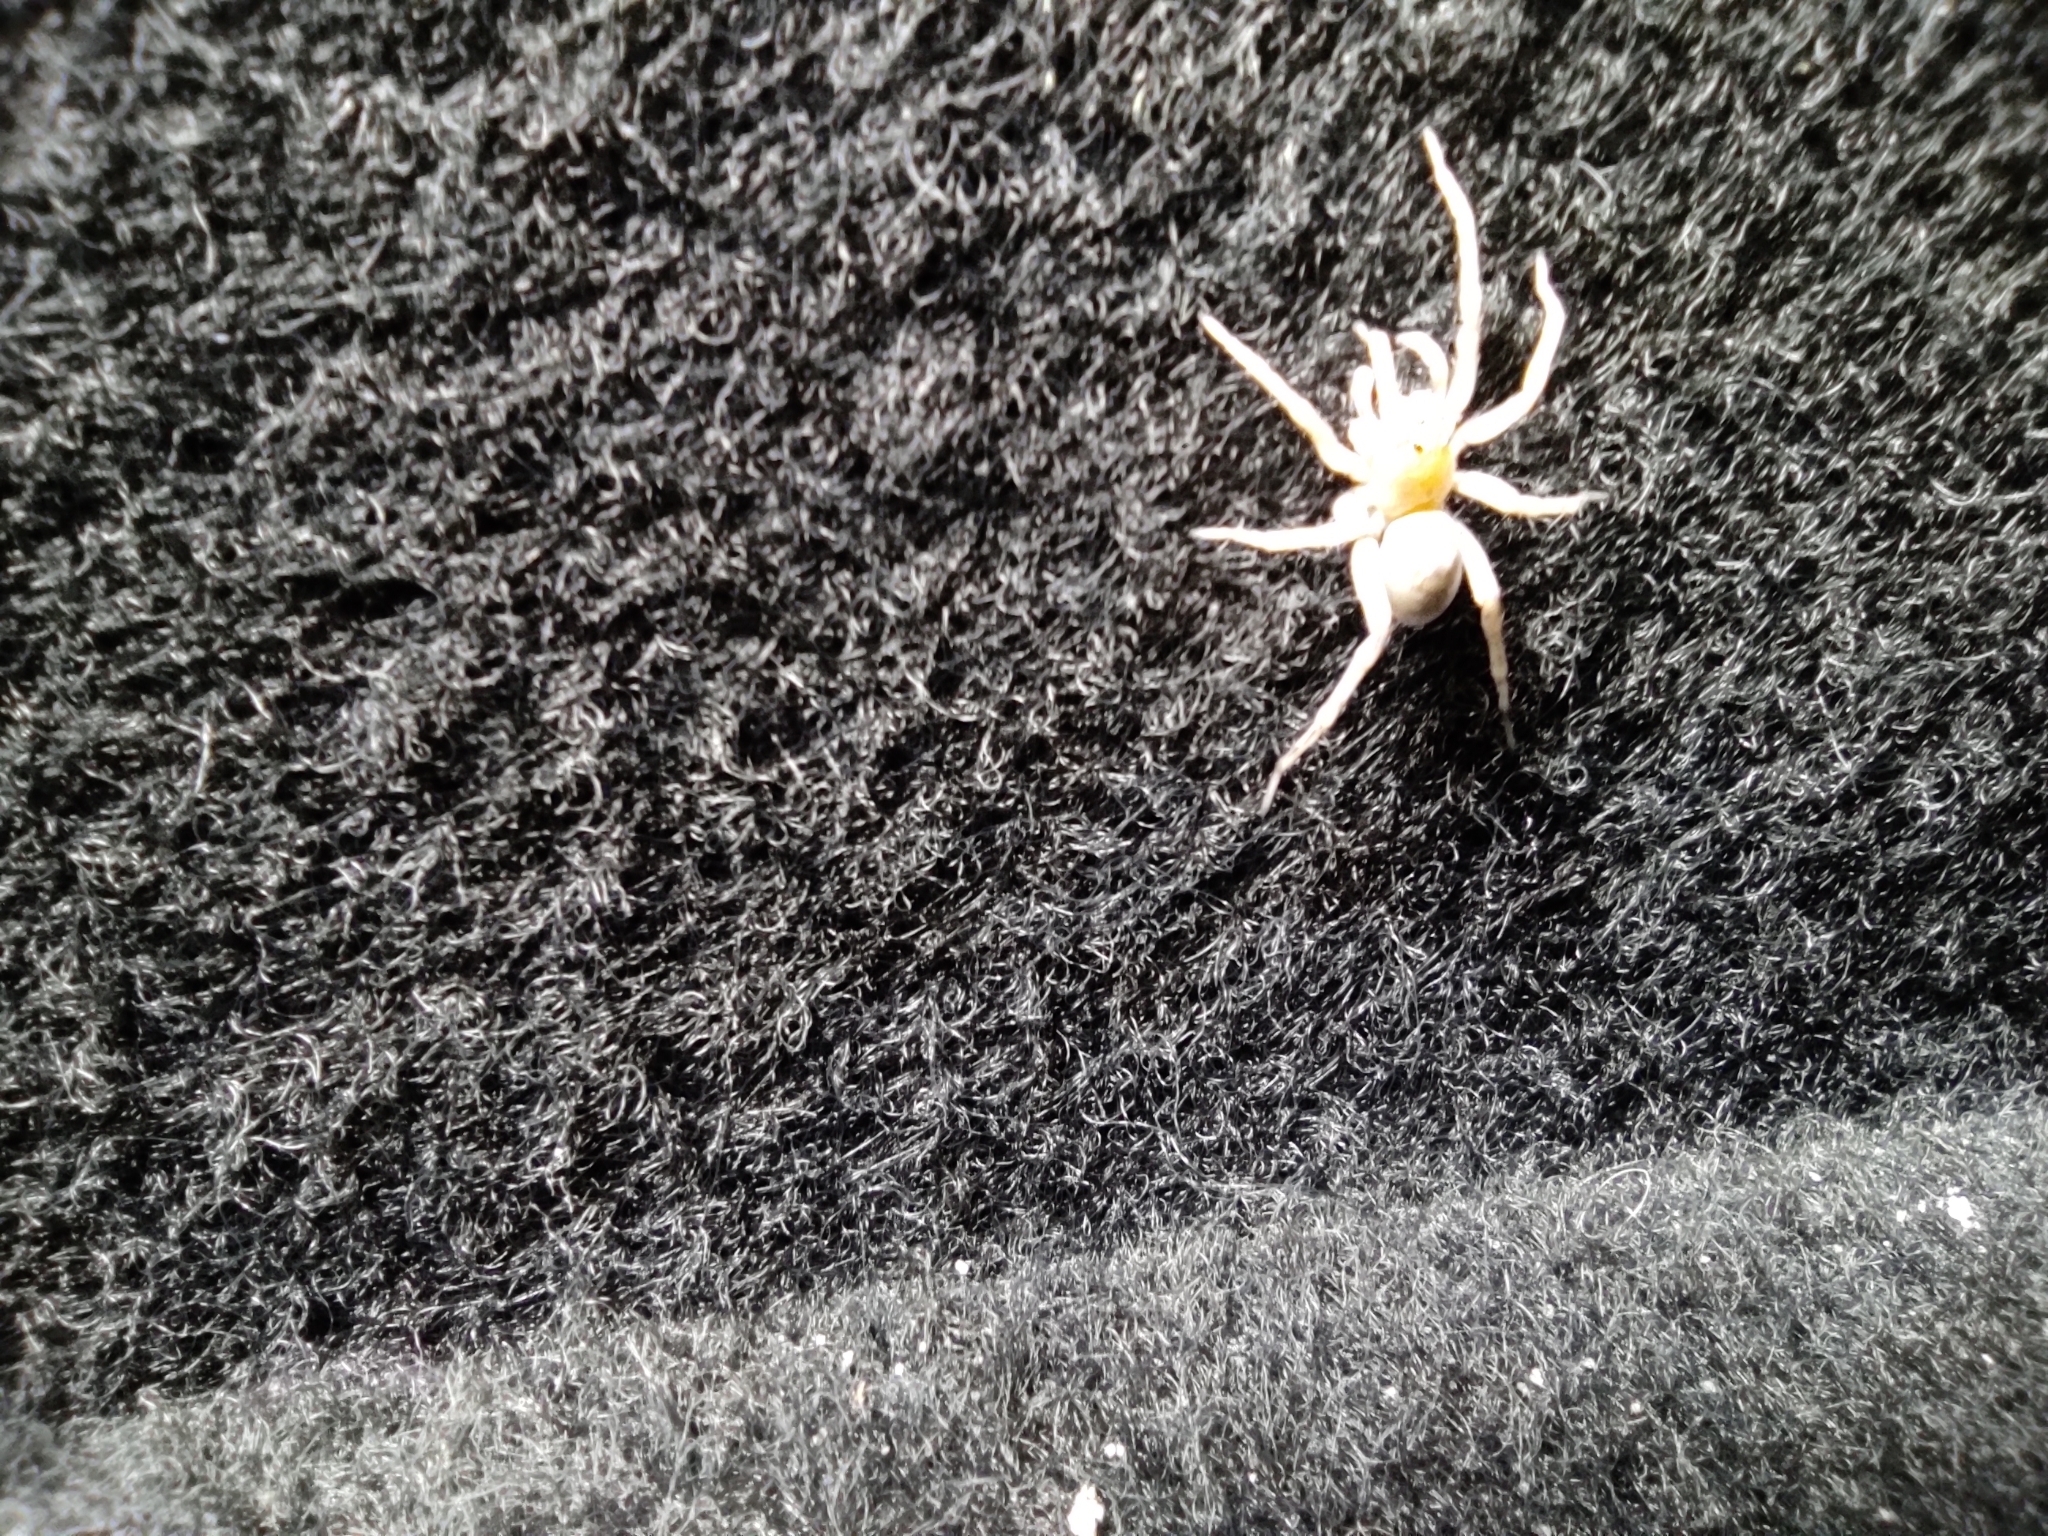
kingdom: Animalia
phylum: Arthropoda
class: Arachnida
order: Araneae
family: Lycosidae
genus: Allocosa
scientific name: Allocosa brasiliensis
